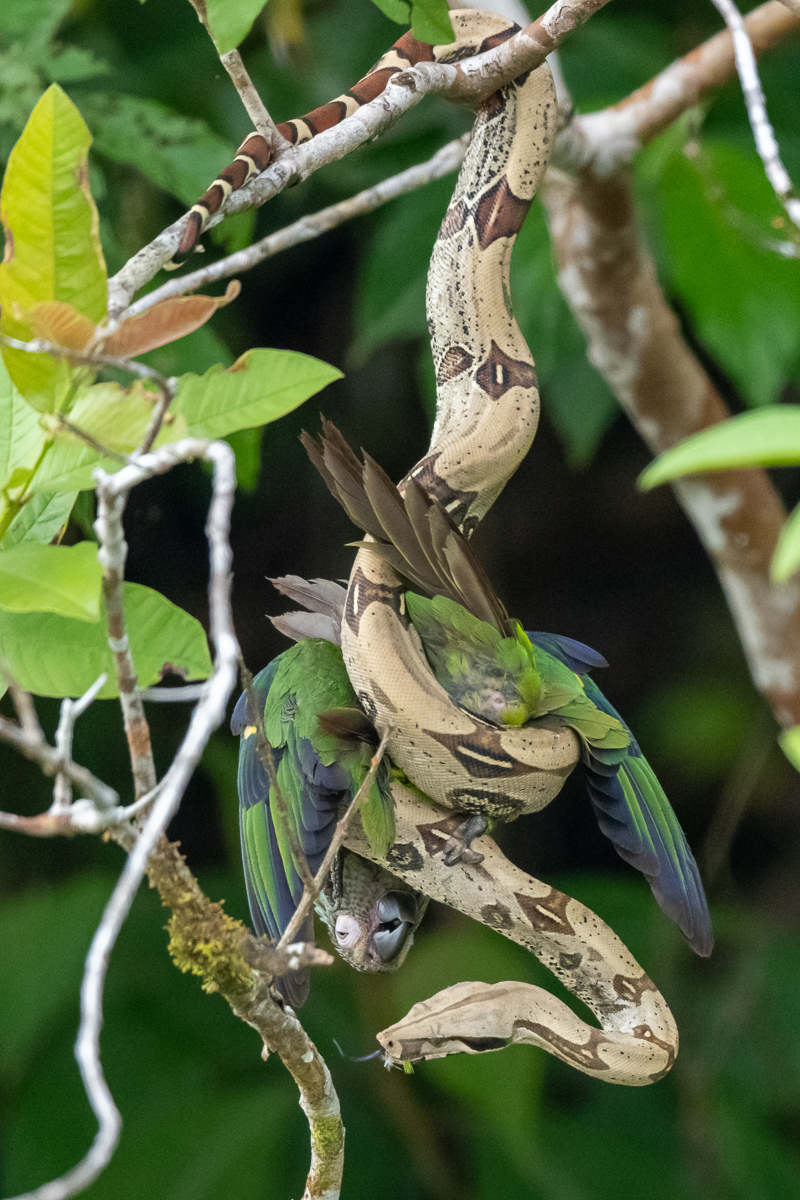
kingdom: Animalia
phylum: Chordata
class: Squamata
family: Boidae
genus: Boa
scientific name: Boa constrictor
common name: Boa constrictor
